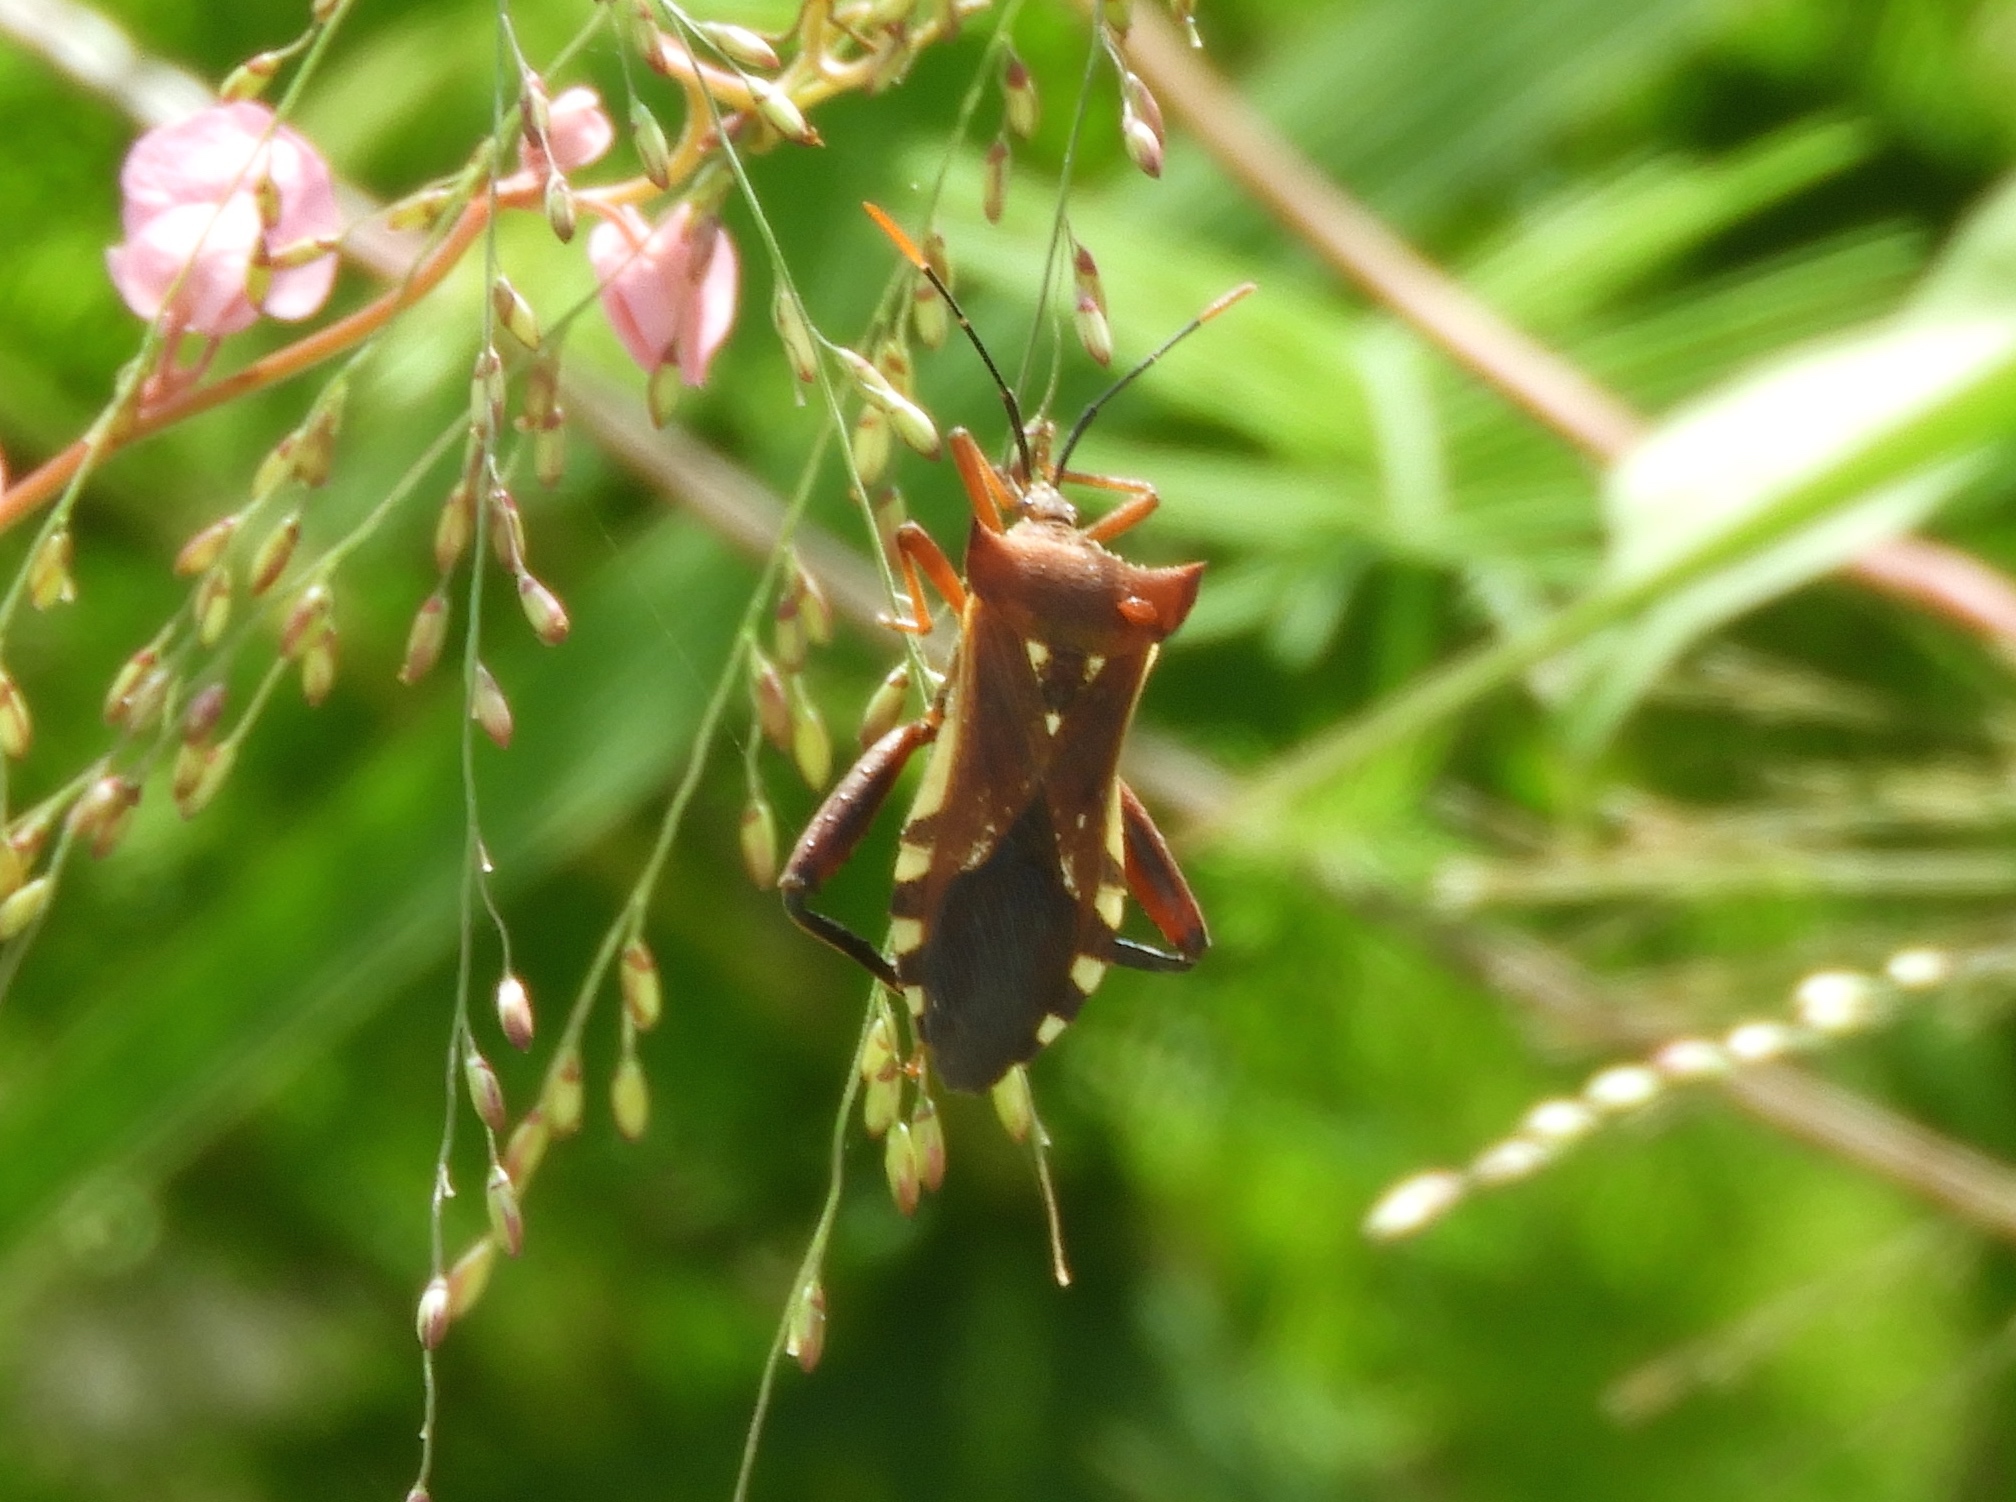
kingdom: Animalia
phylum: Arthropoda
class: Insecta
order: Hemiptera
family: Coreidae
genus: Mozena
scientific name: Mozena lunata
